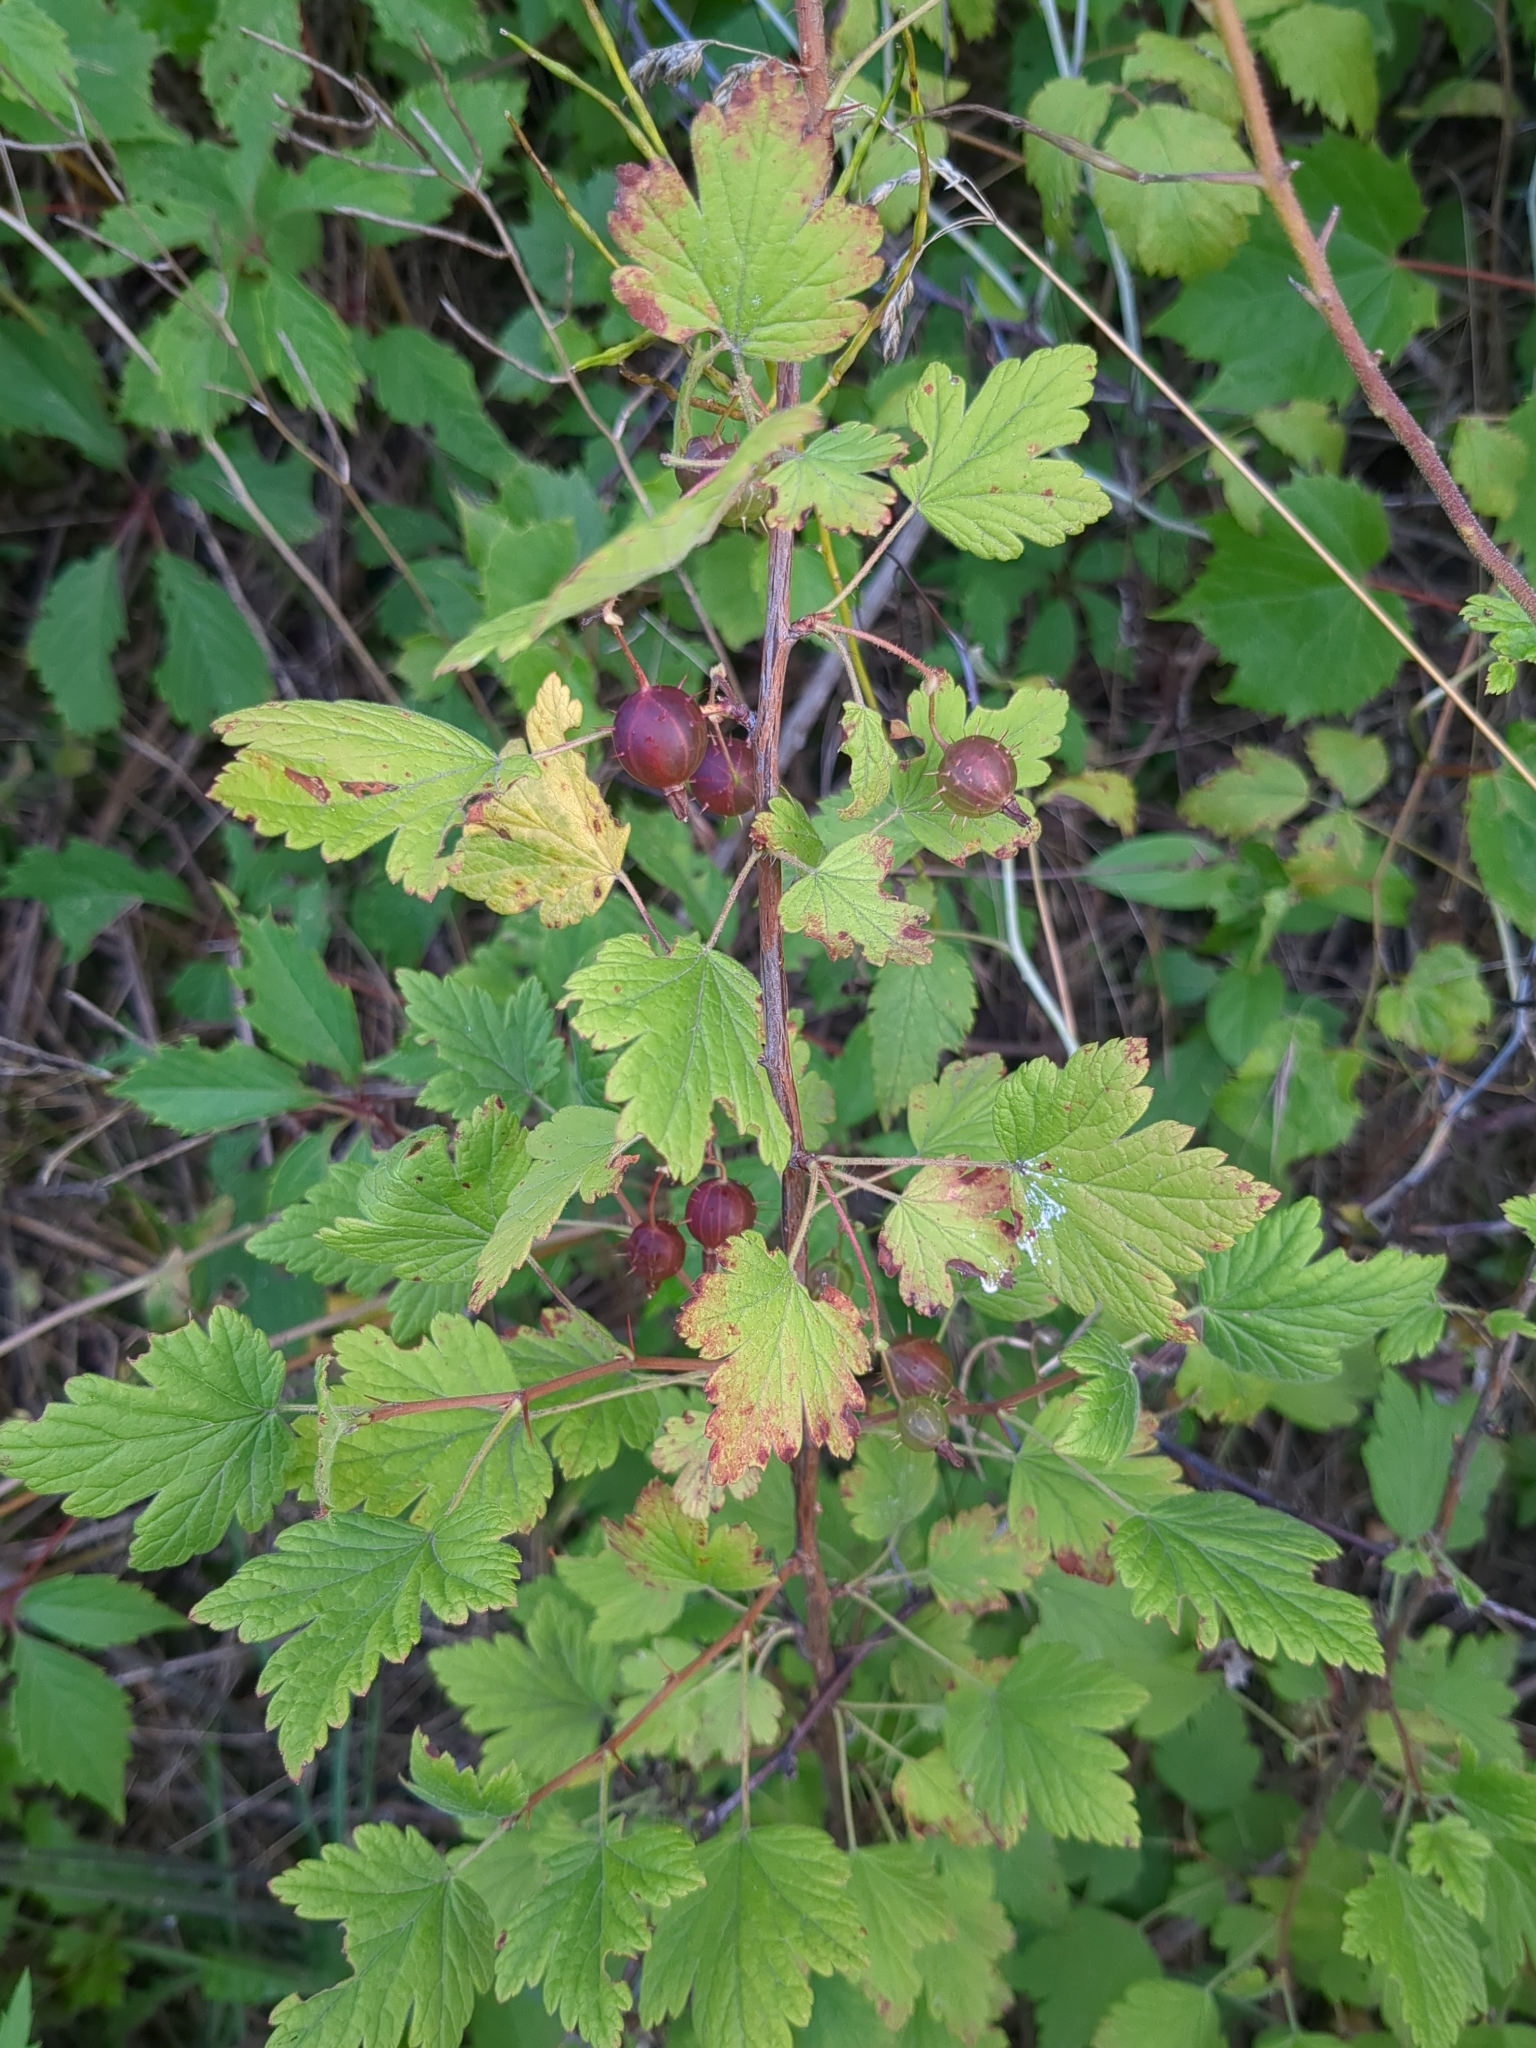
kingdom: Plantae
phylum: Tracheophyta
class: Magnoliopsida
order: Saxifragales
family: Grossulariaceae
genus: Ribes
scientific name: Ribes cynosbati
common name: American gooseberry
